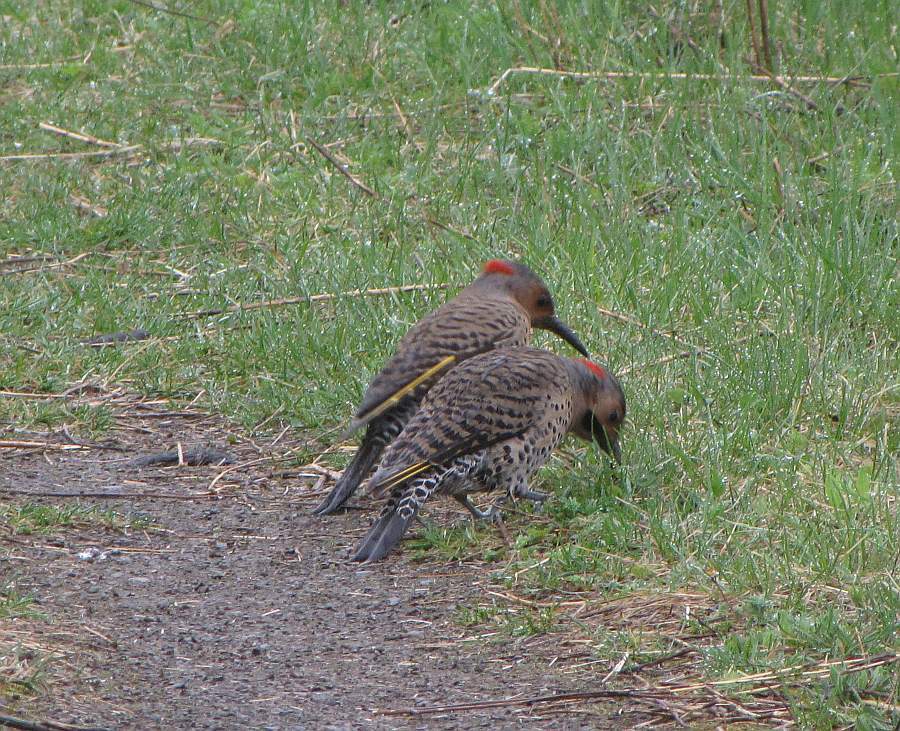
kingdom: Animalia
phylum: Chordata
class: Aves
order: Piciformes
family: Picidae
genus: Colaptes
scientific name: Colaptes auratus
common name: Northern flicker
